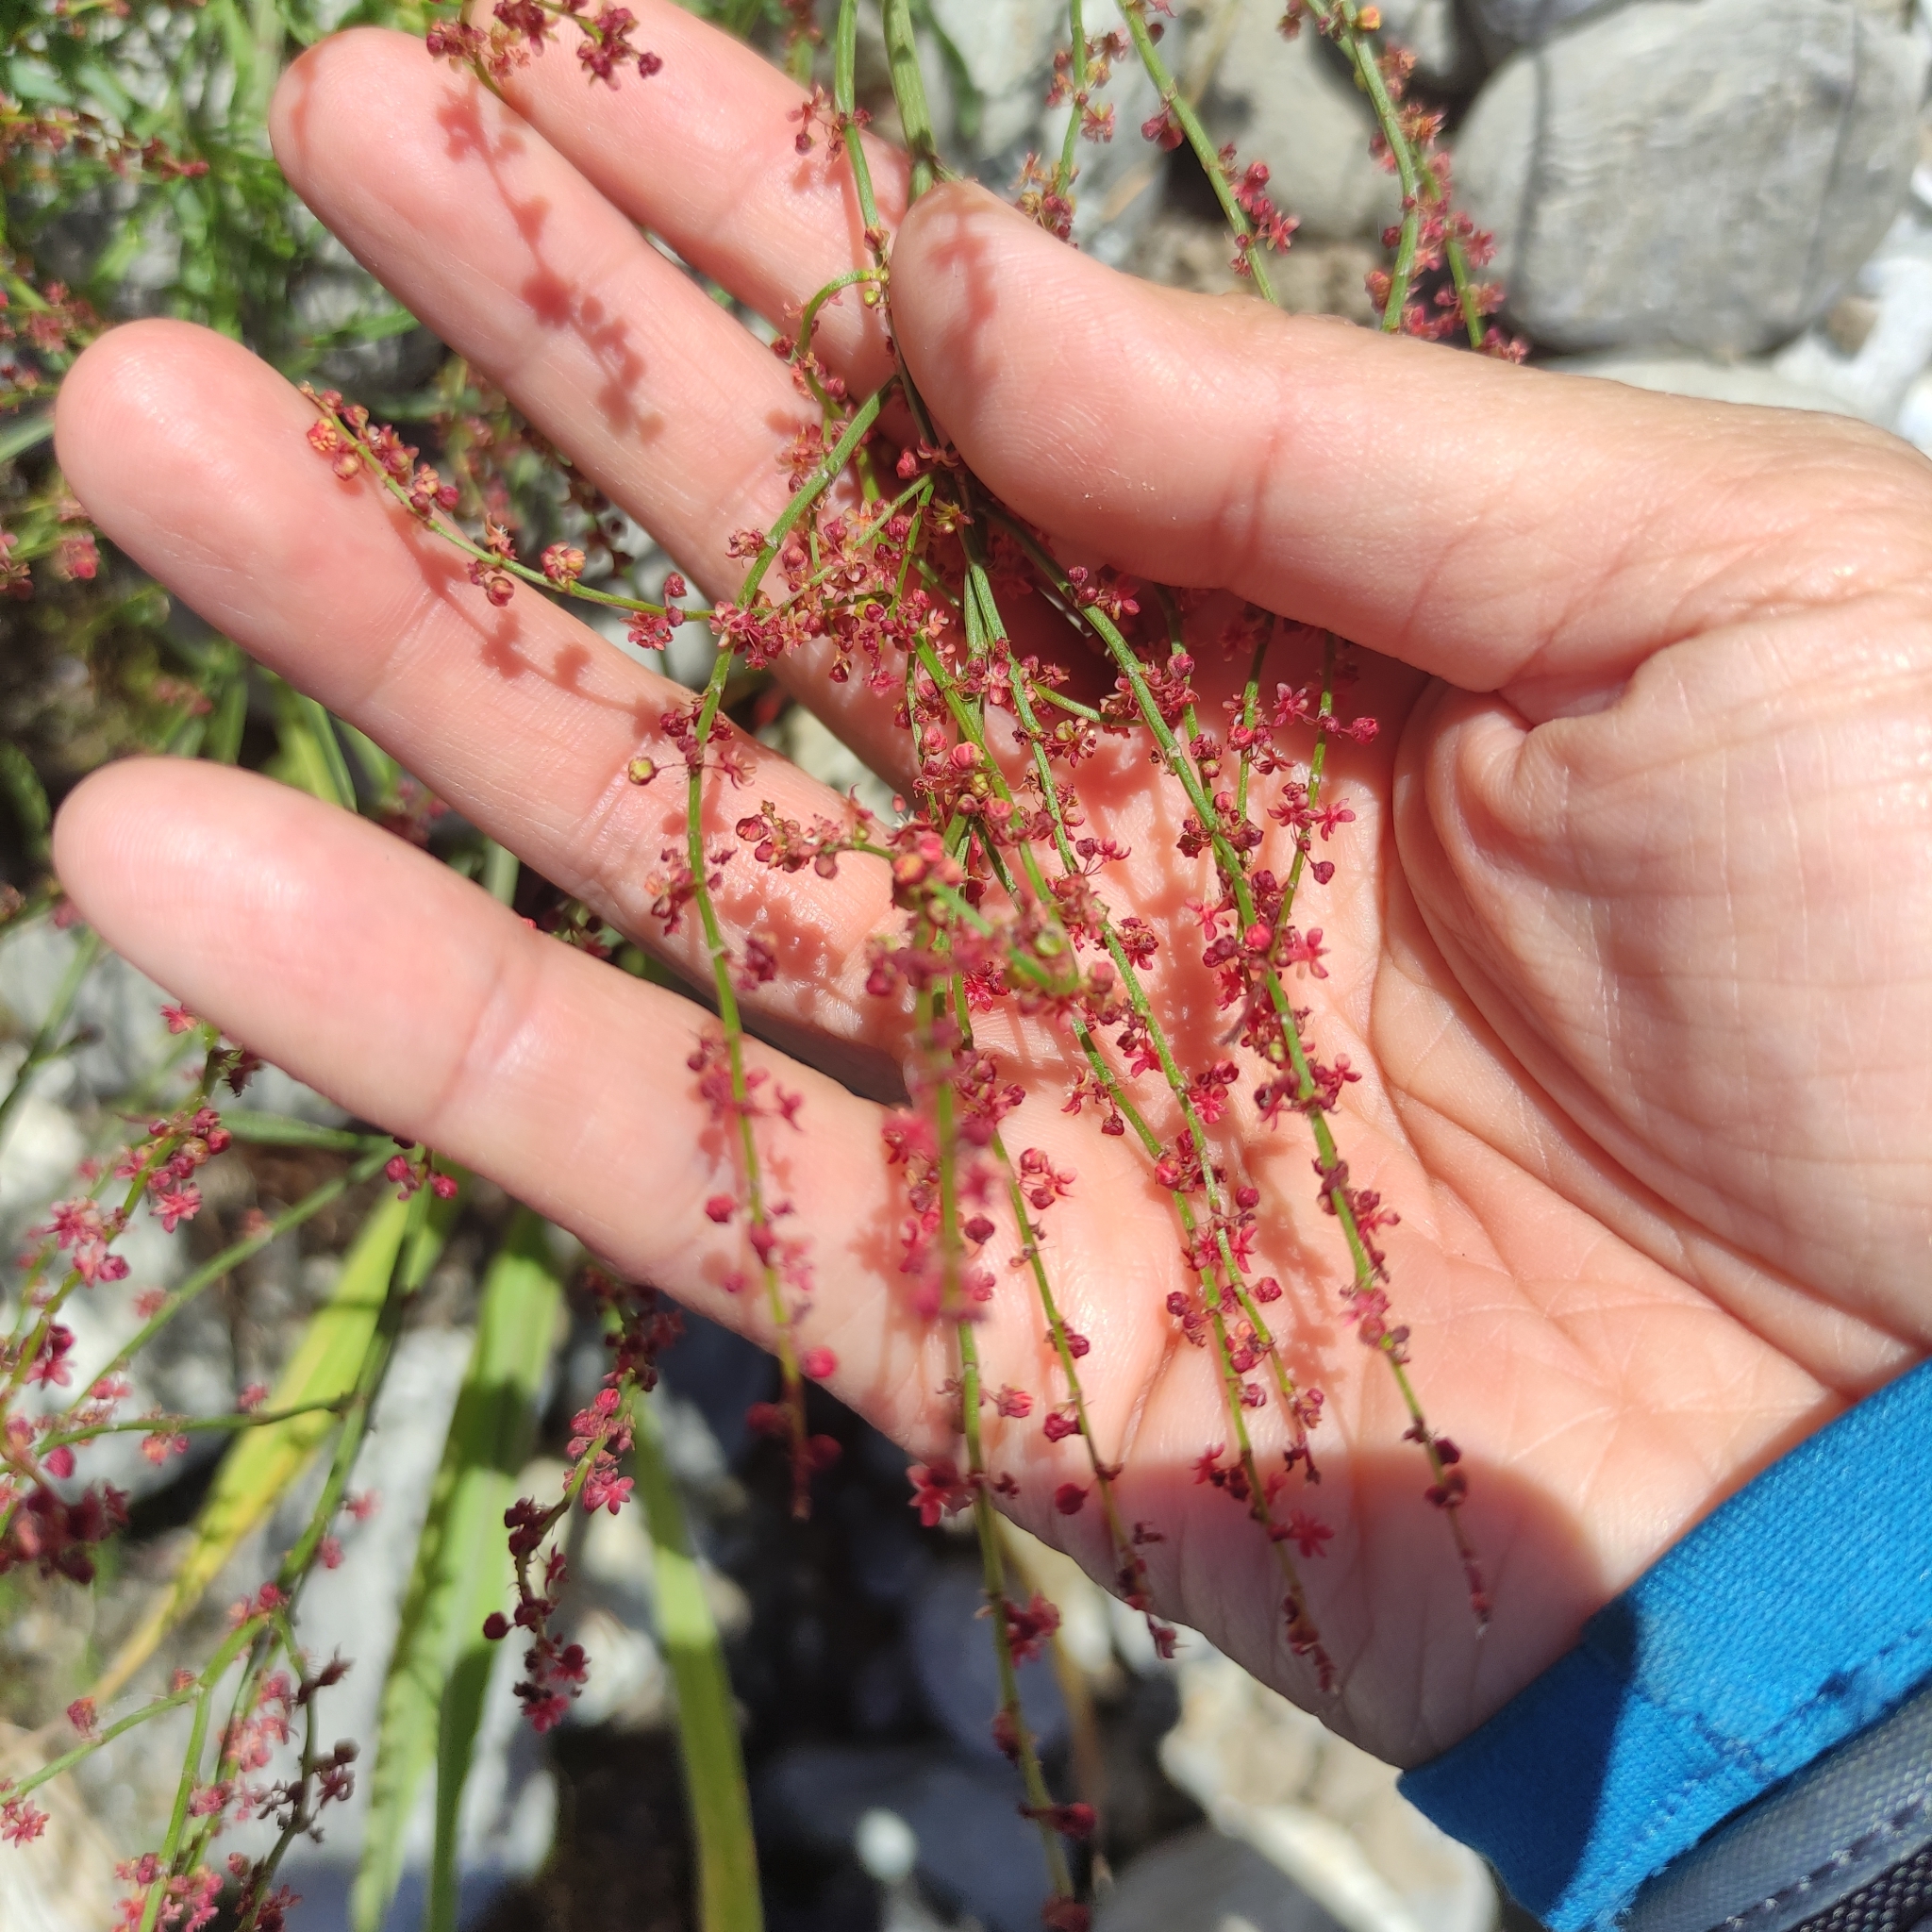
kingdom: Plantae
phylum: Tracheophyta
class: Magnoliopsida
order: Caryophyllales
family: Polygonaceae
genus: Rumex
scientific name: Rumex acetosella
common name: Common sheep sorrel
